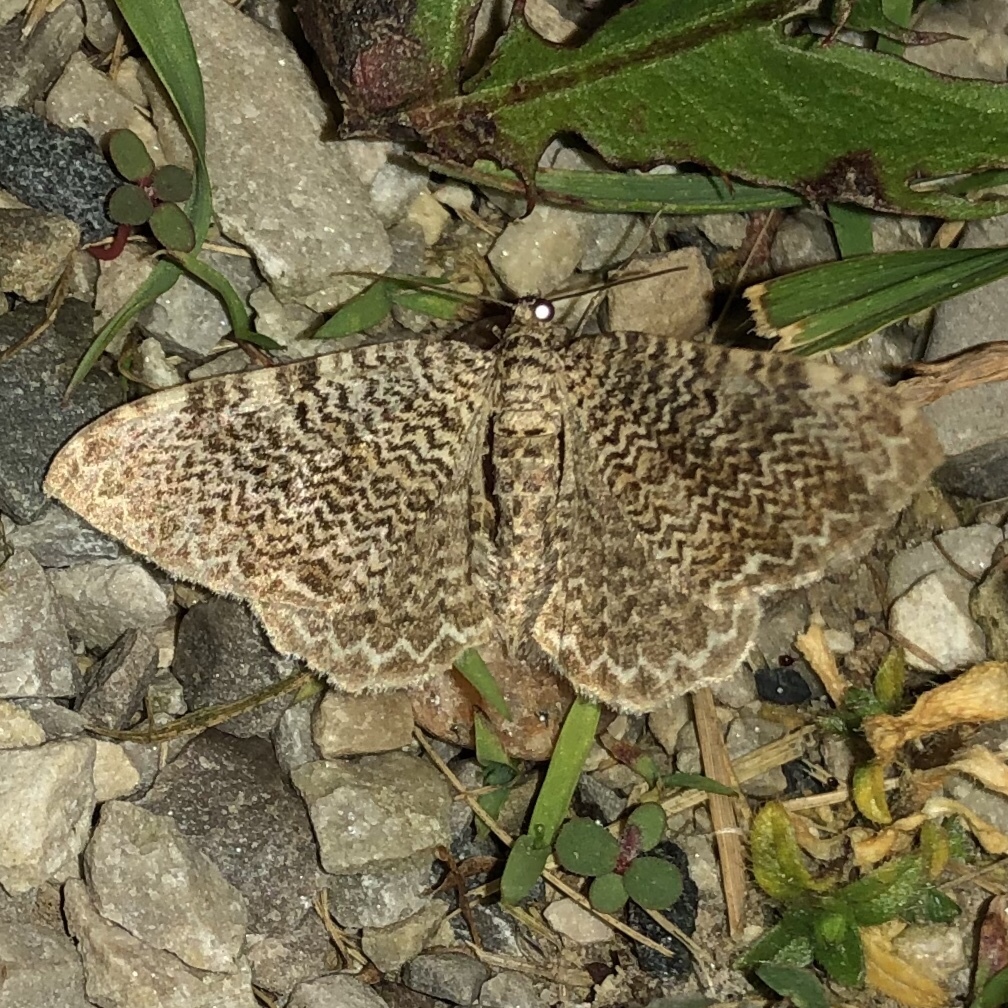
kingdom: Animalia
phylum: Arthropoda
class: Insecta
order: Lepidoptera
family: Geometridae
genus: Rheumaptera
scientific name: Rheumaptera prunivorata
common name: Cherry scallop shell moth
